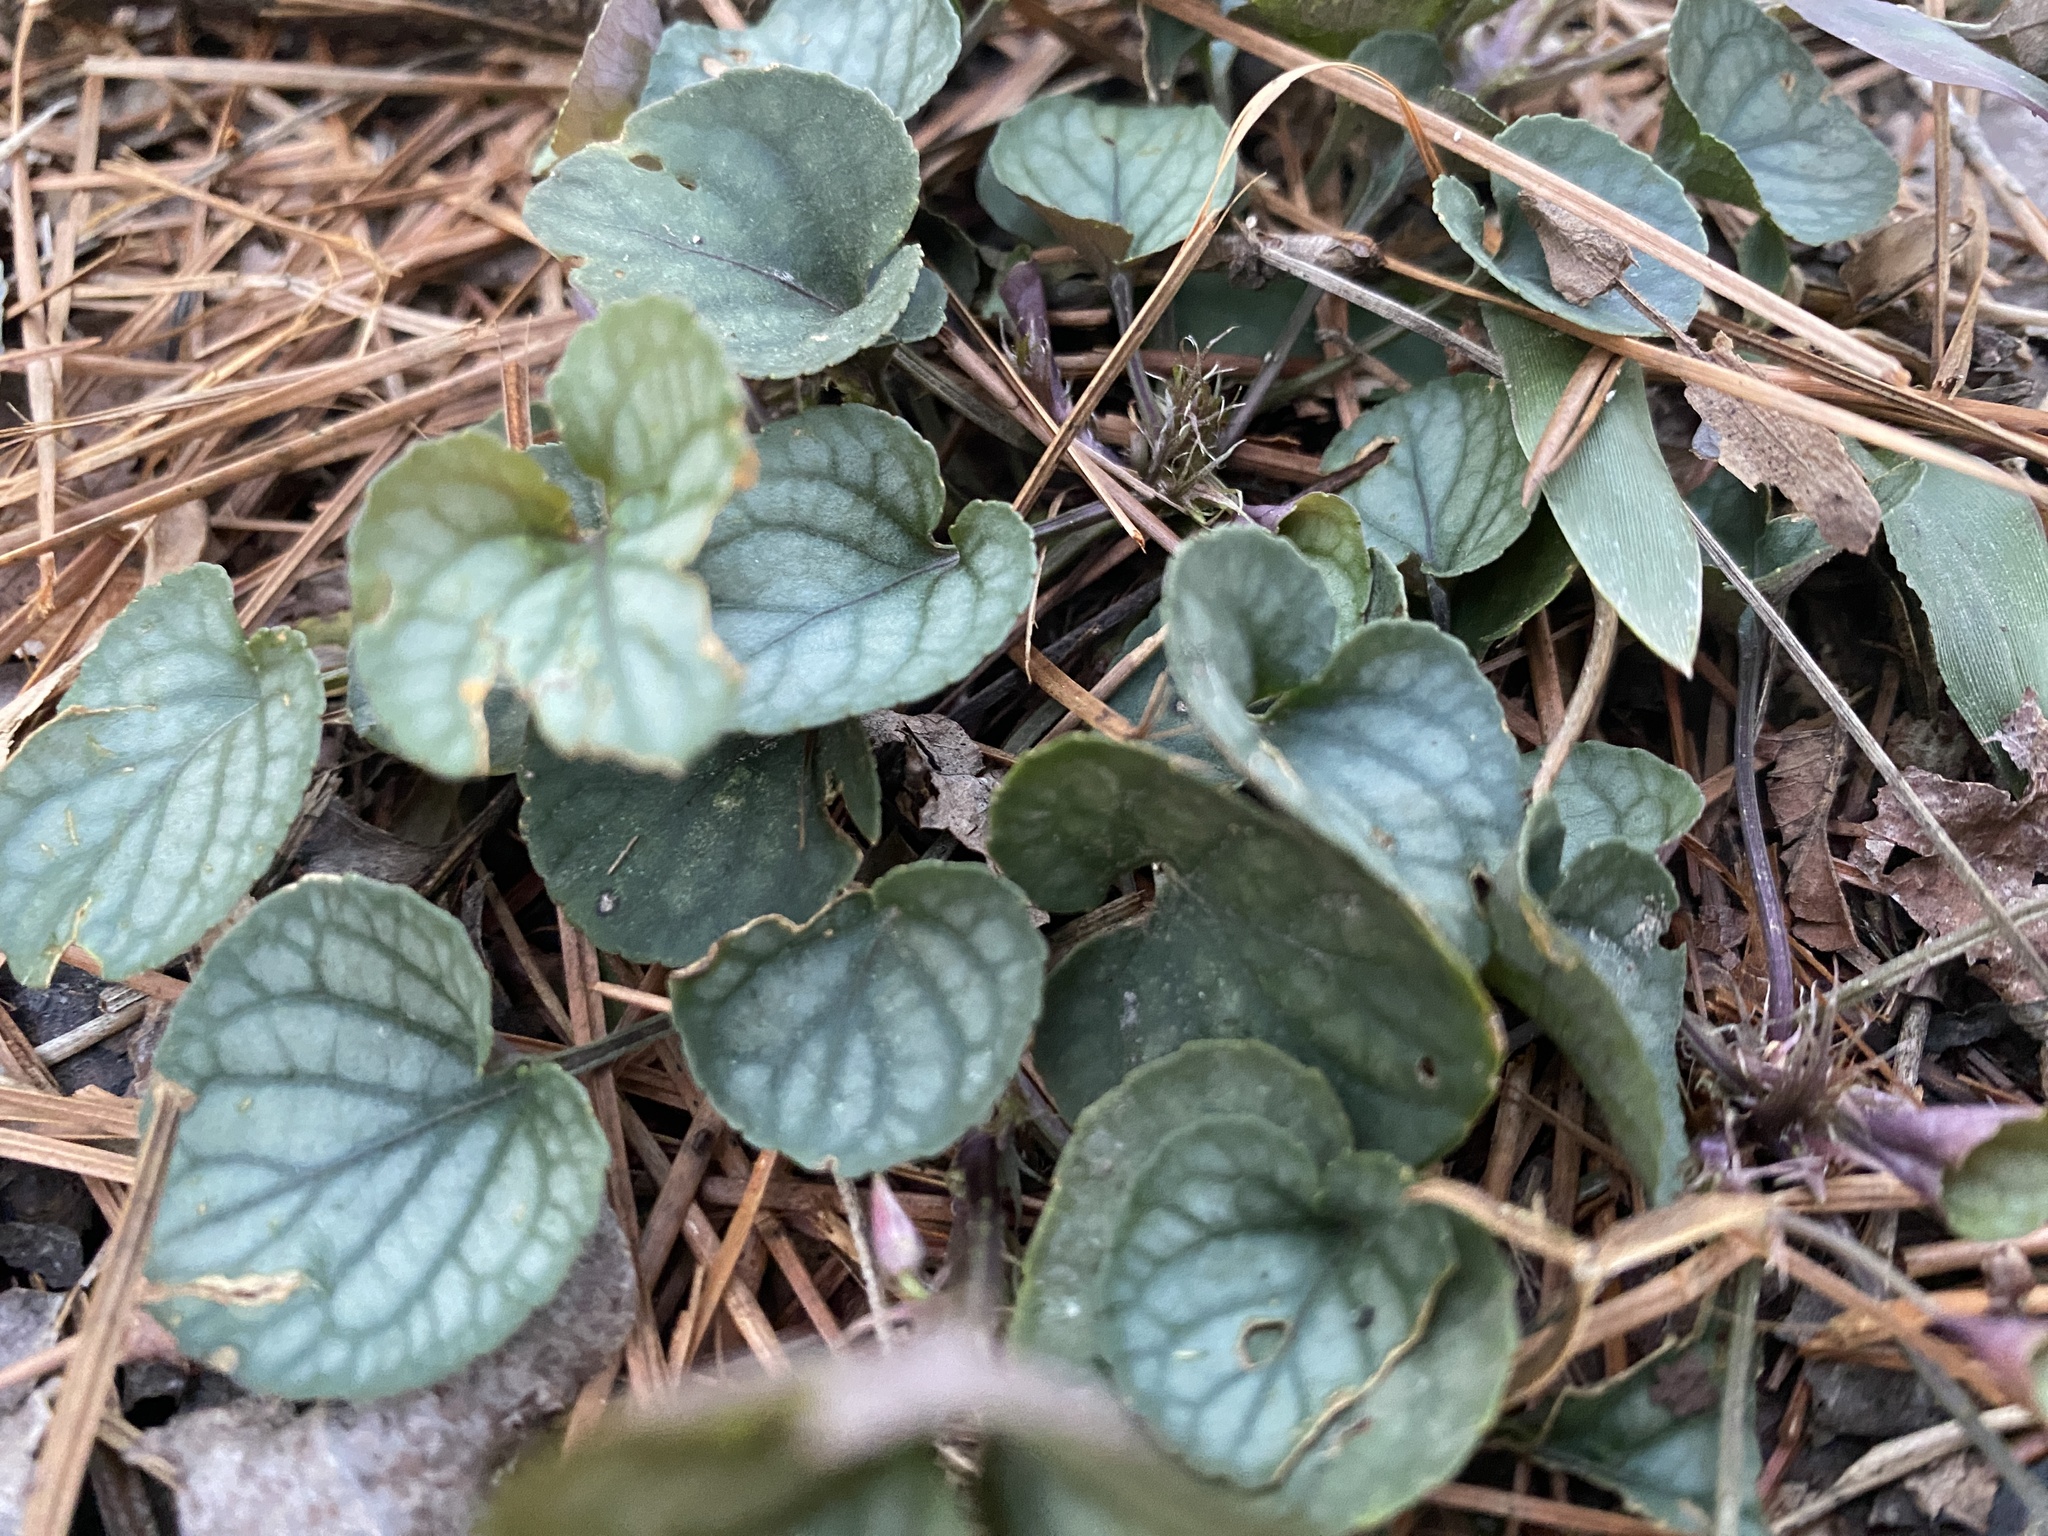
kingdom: Plantae
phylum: Tracheophyta
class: Magnoliopsida
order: Malpighiales
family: Violaceae
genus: Viola
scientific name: Viola walteri
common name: Prostrate southern violet
